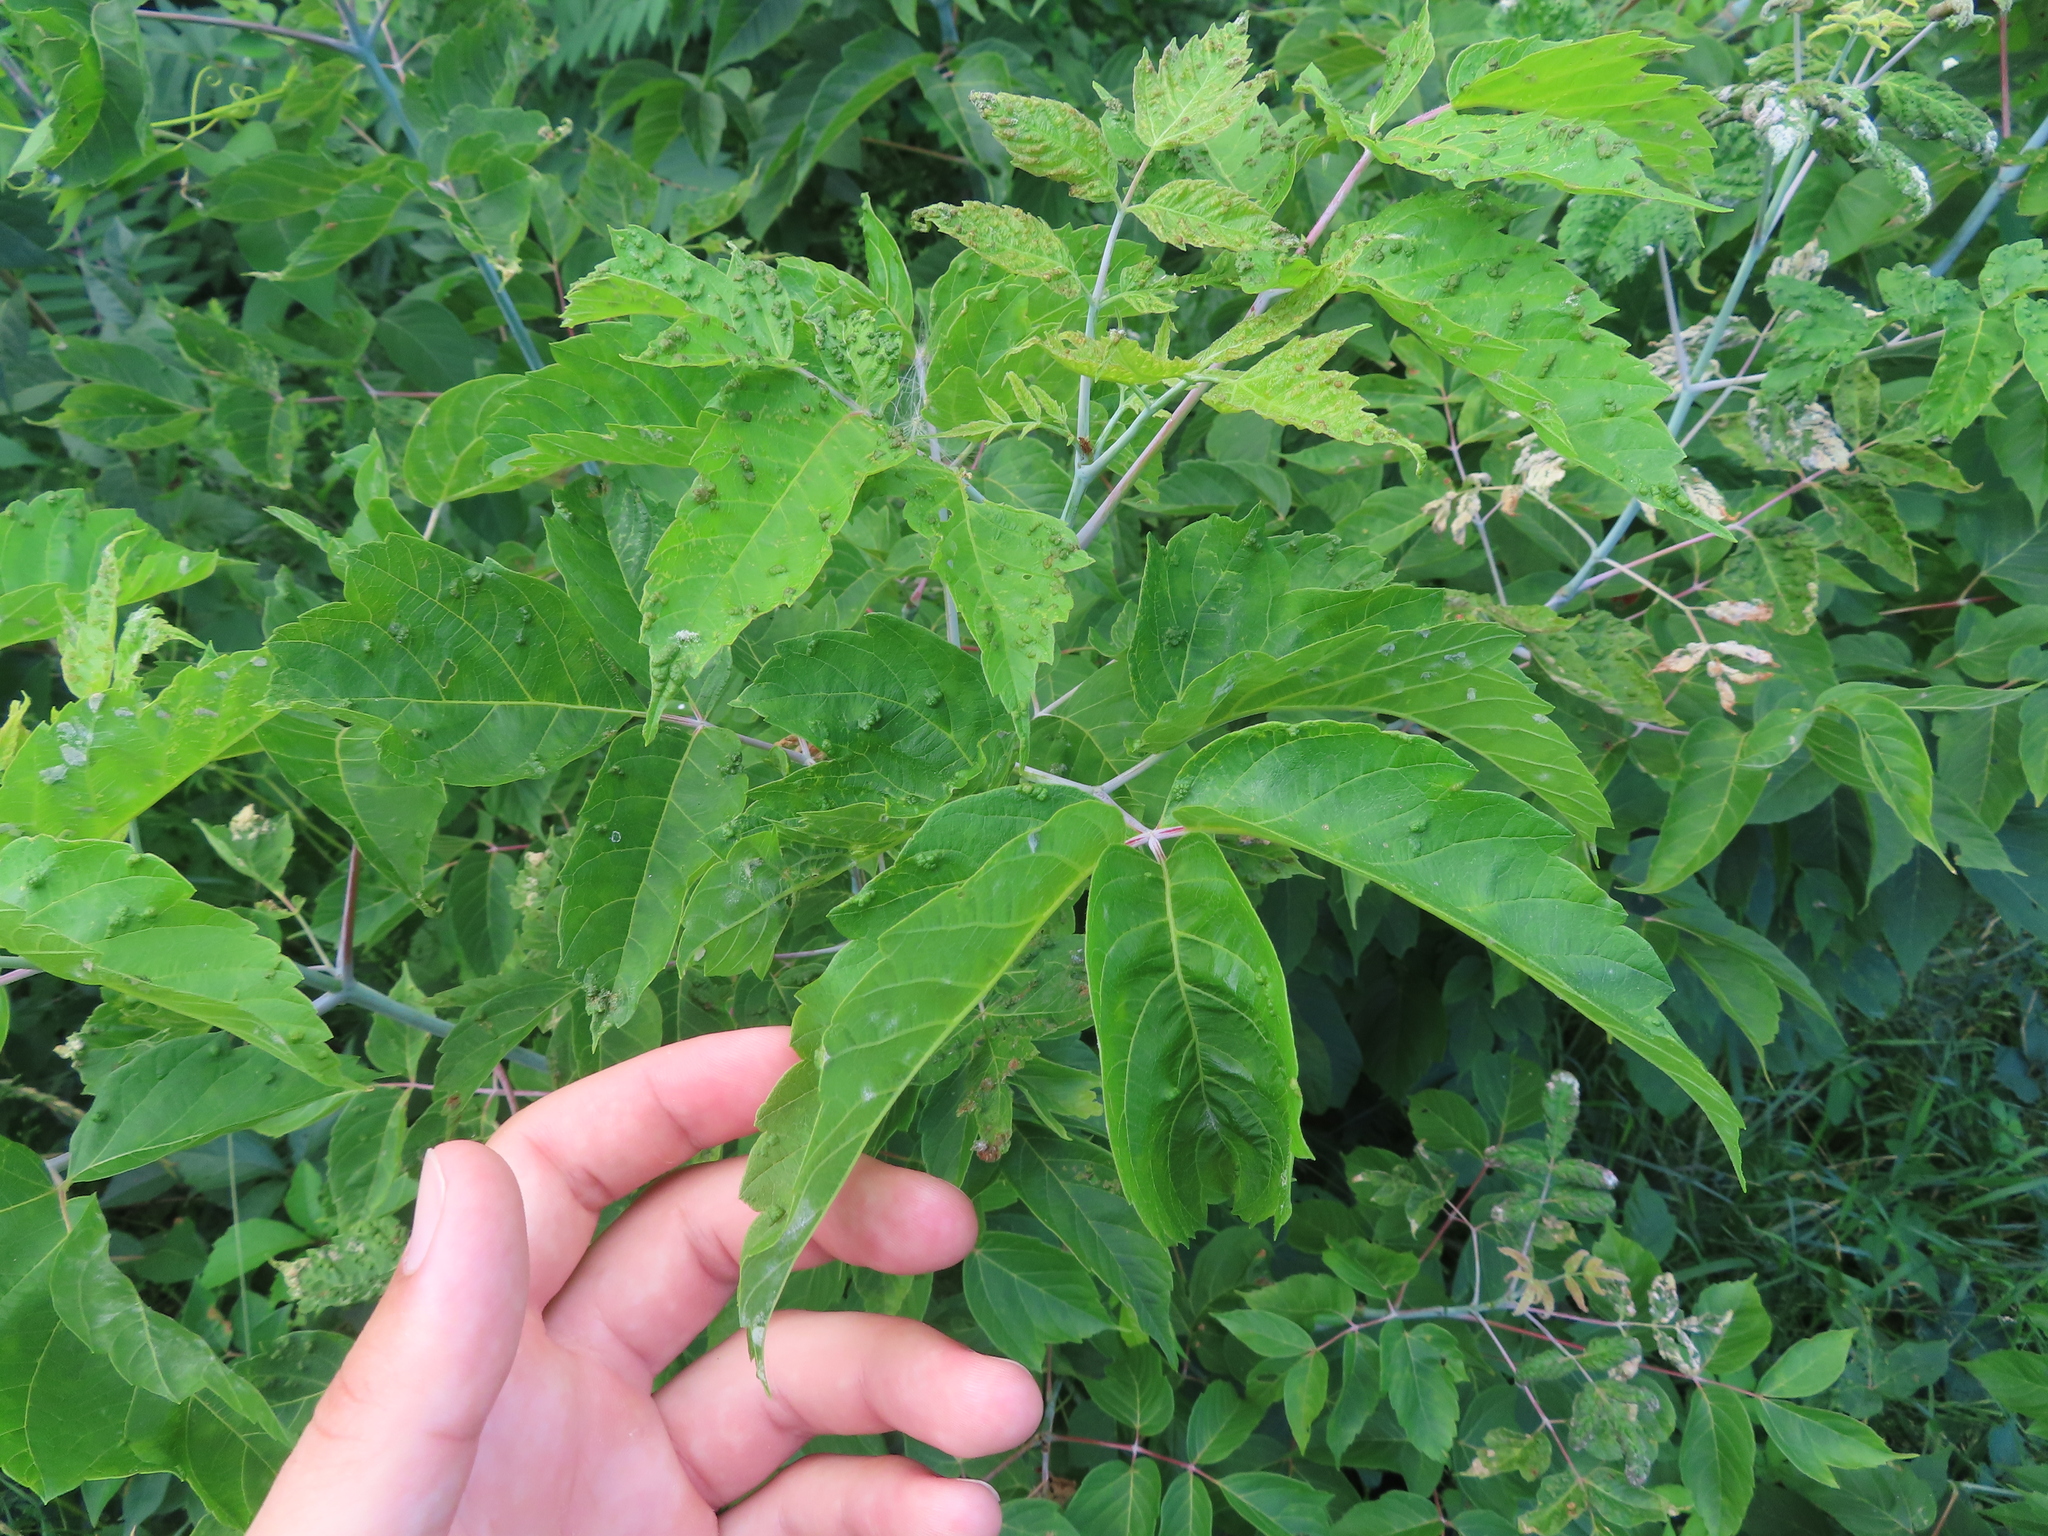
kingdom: Animalia
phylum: Arthropoda
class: Arachnida
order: Trombidiformes
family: Eriophyidae
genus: Aceria
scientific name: Aceria
